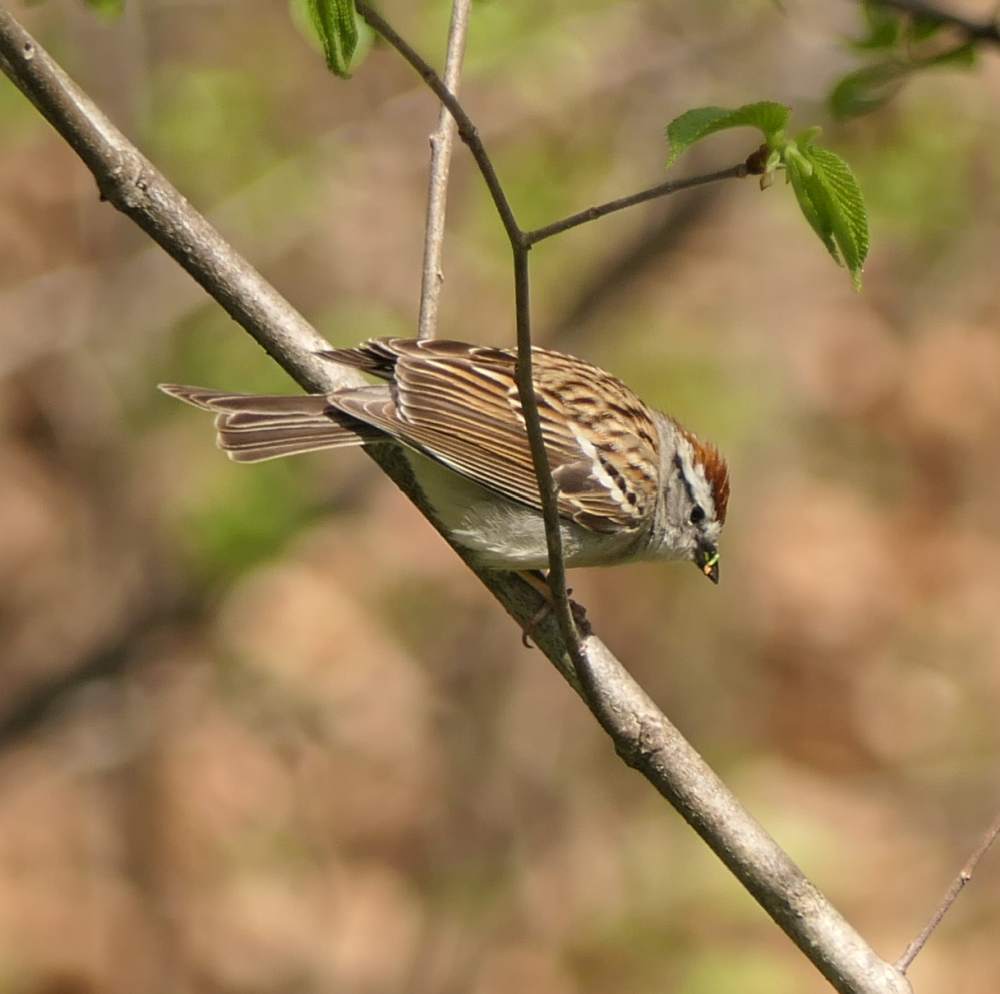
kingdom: Animalia
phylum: Chordata
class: Aves
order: Passeriformes
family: Passerellidae
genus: Spizella
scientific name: Spizella passerina
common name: Chipping sparrow
